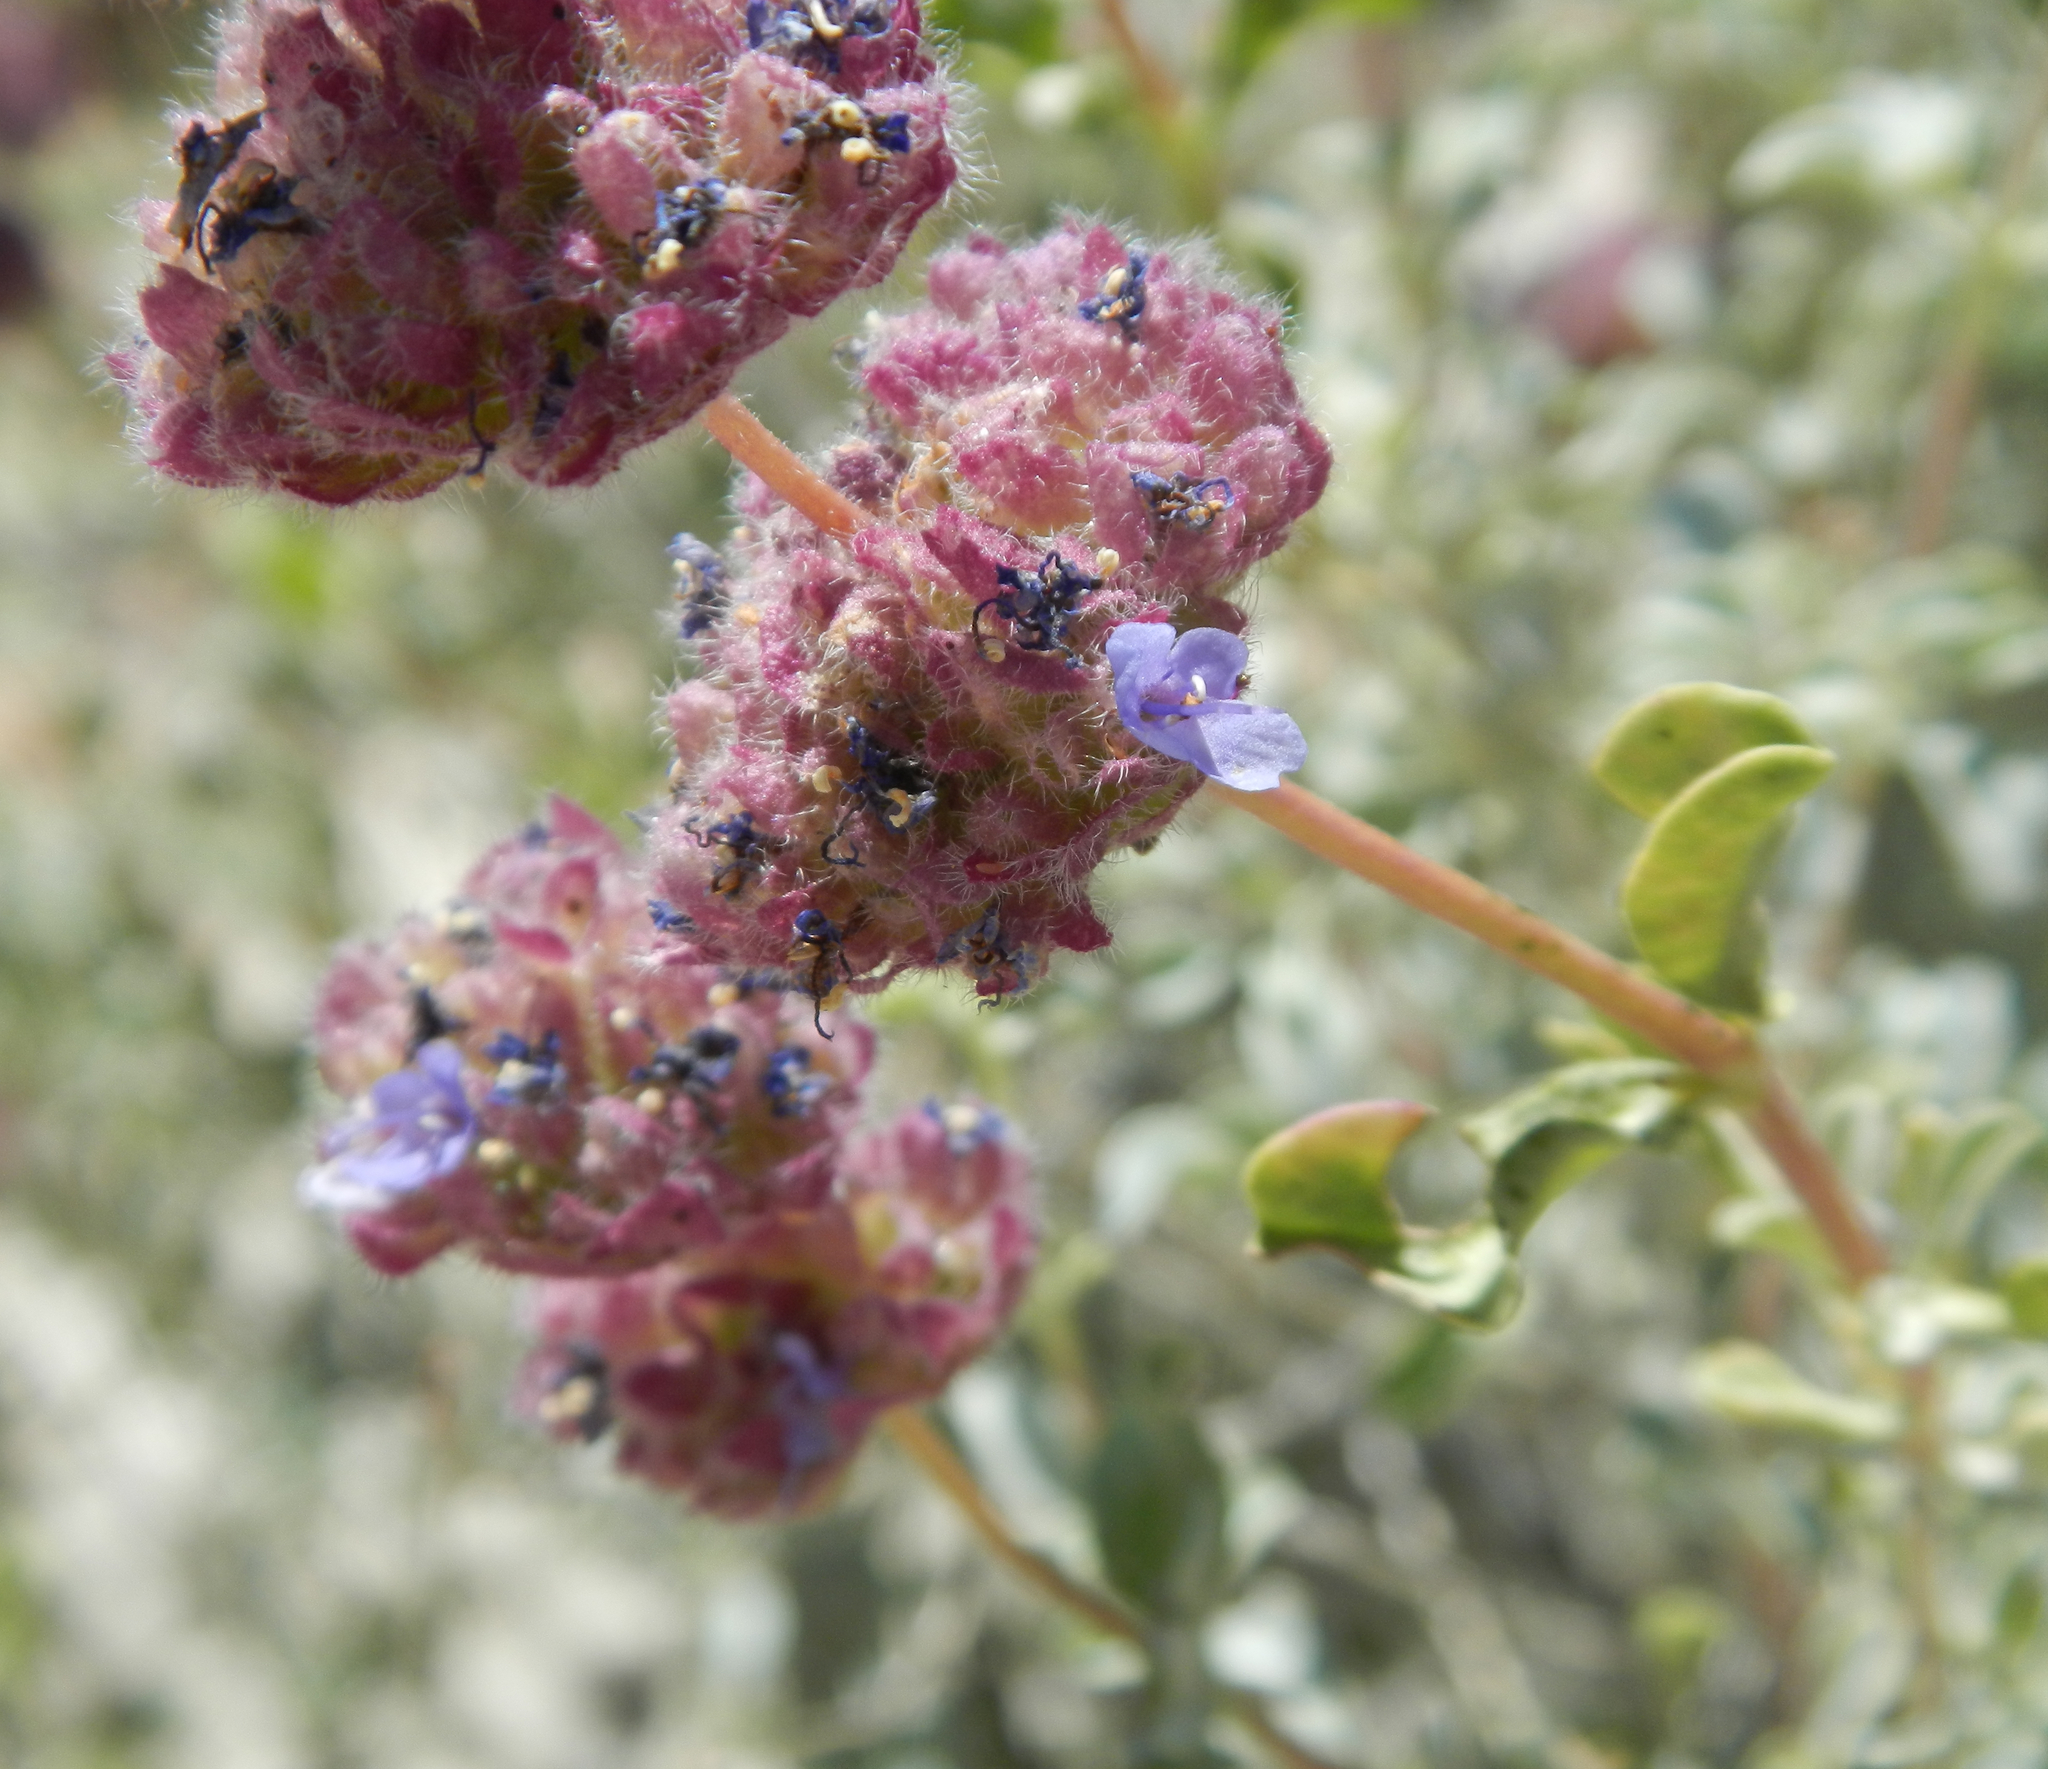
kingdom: Plantae
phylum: Tracheophyta
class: Magnoliopsida
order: Lamiales
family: Lamiaceae
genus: Salvia
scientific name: Salvia columbariae
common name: Chia
